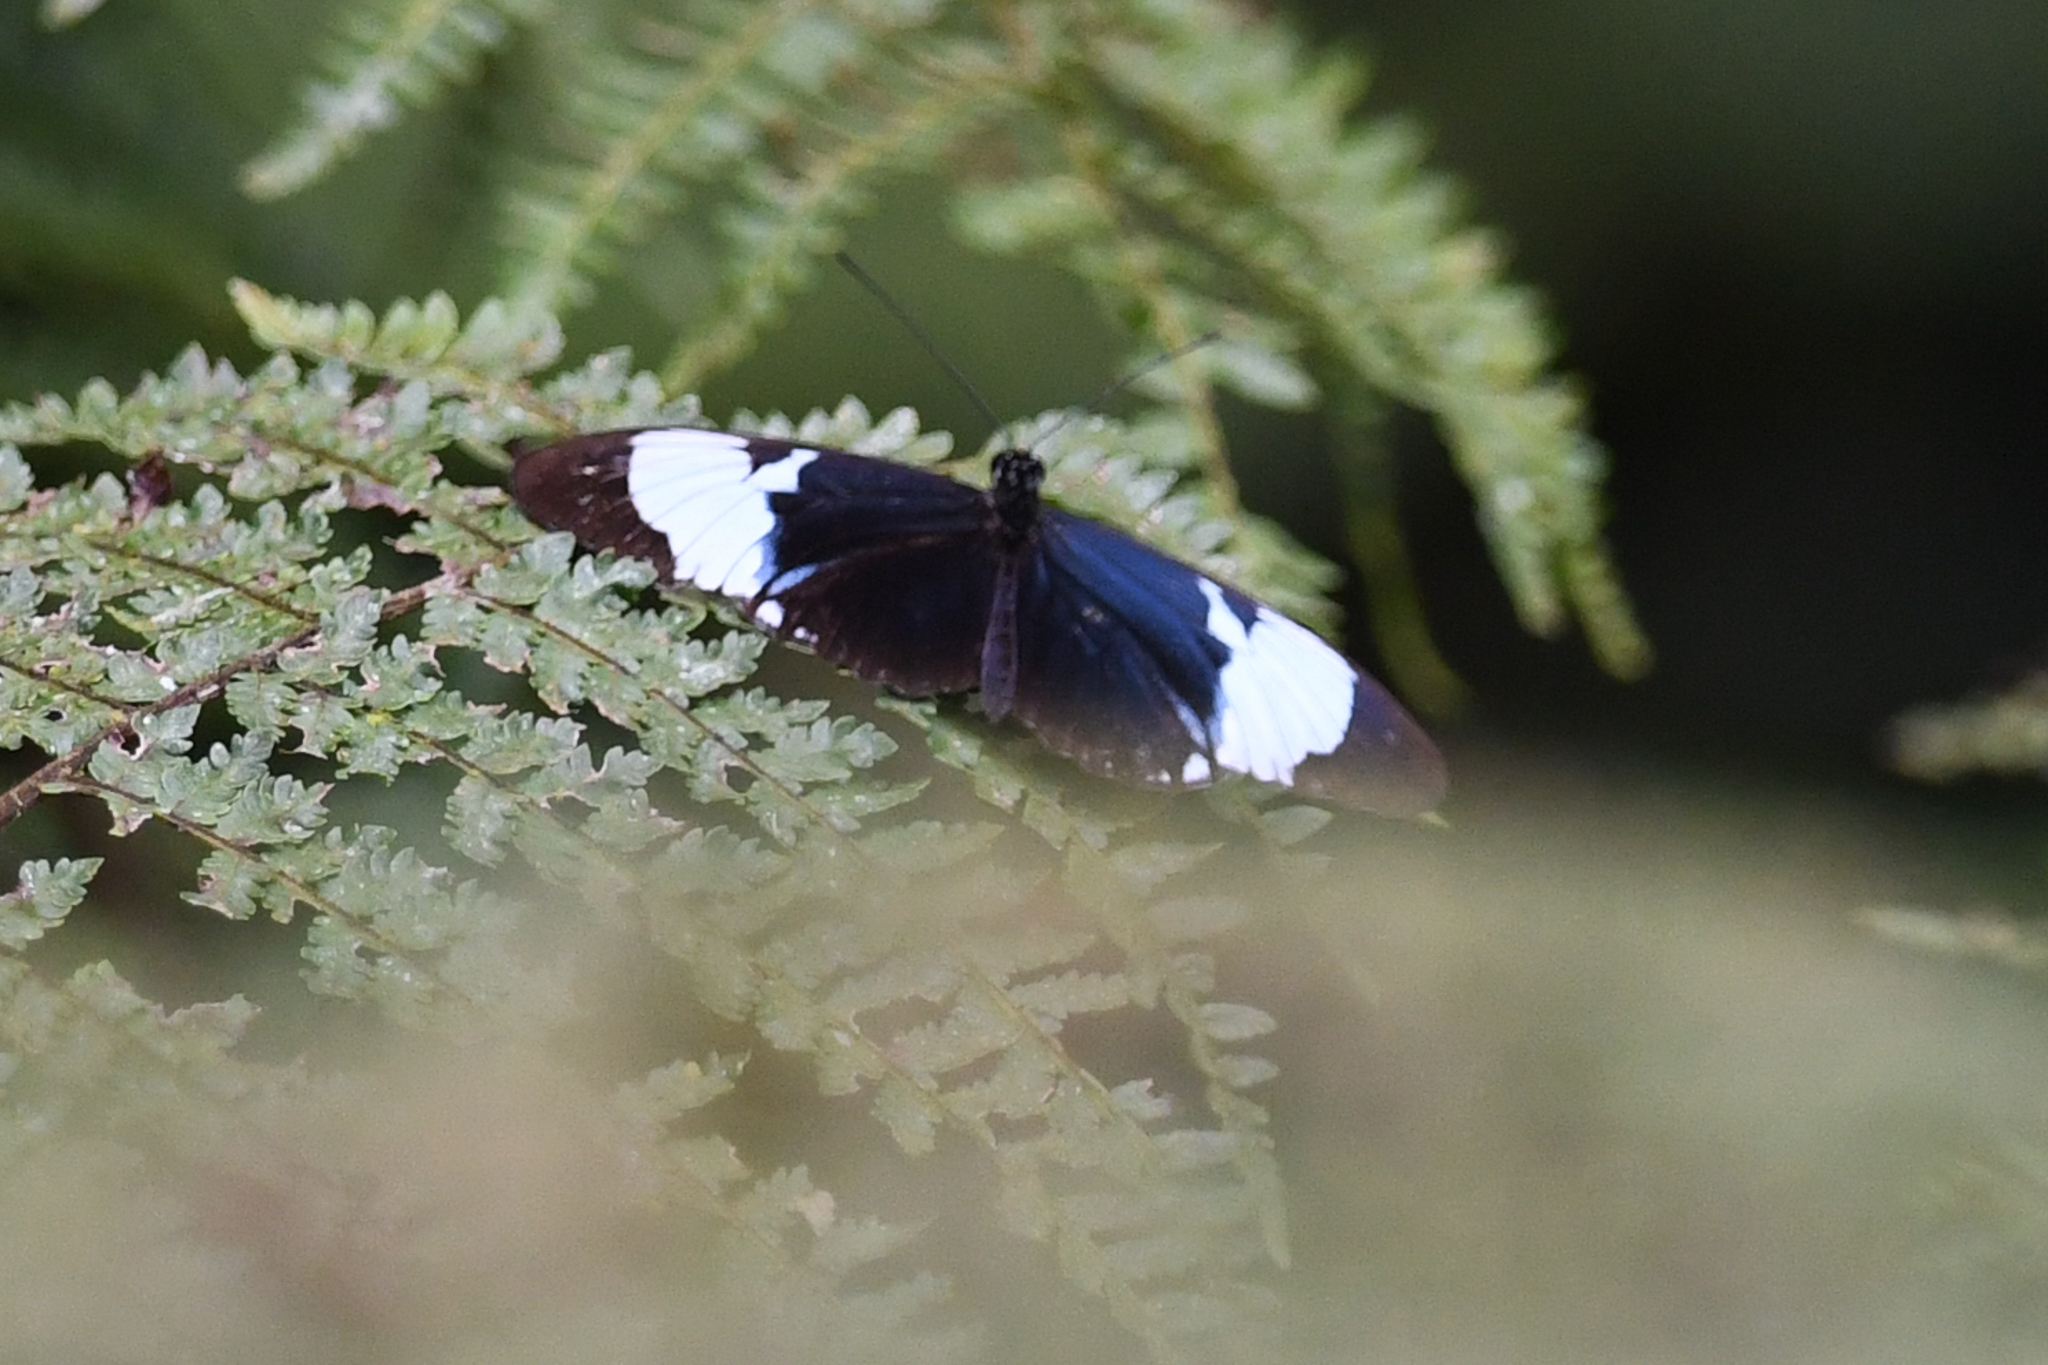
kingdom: Animalia
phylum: Arthropoda
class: Insecta
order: Lepidoptera
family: Nymphalidae
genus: Heliconius
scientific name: Heliconius cydno
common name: Cydno longwing
